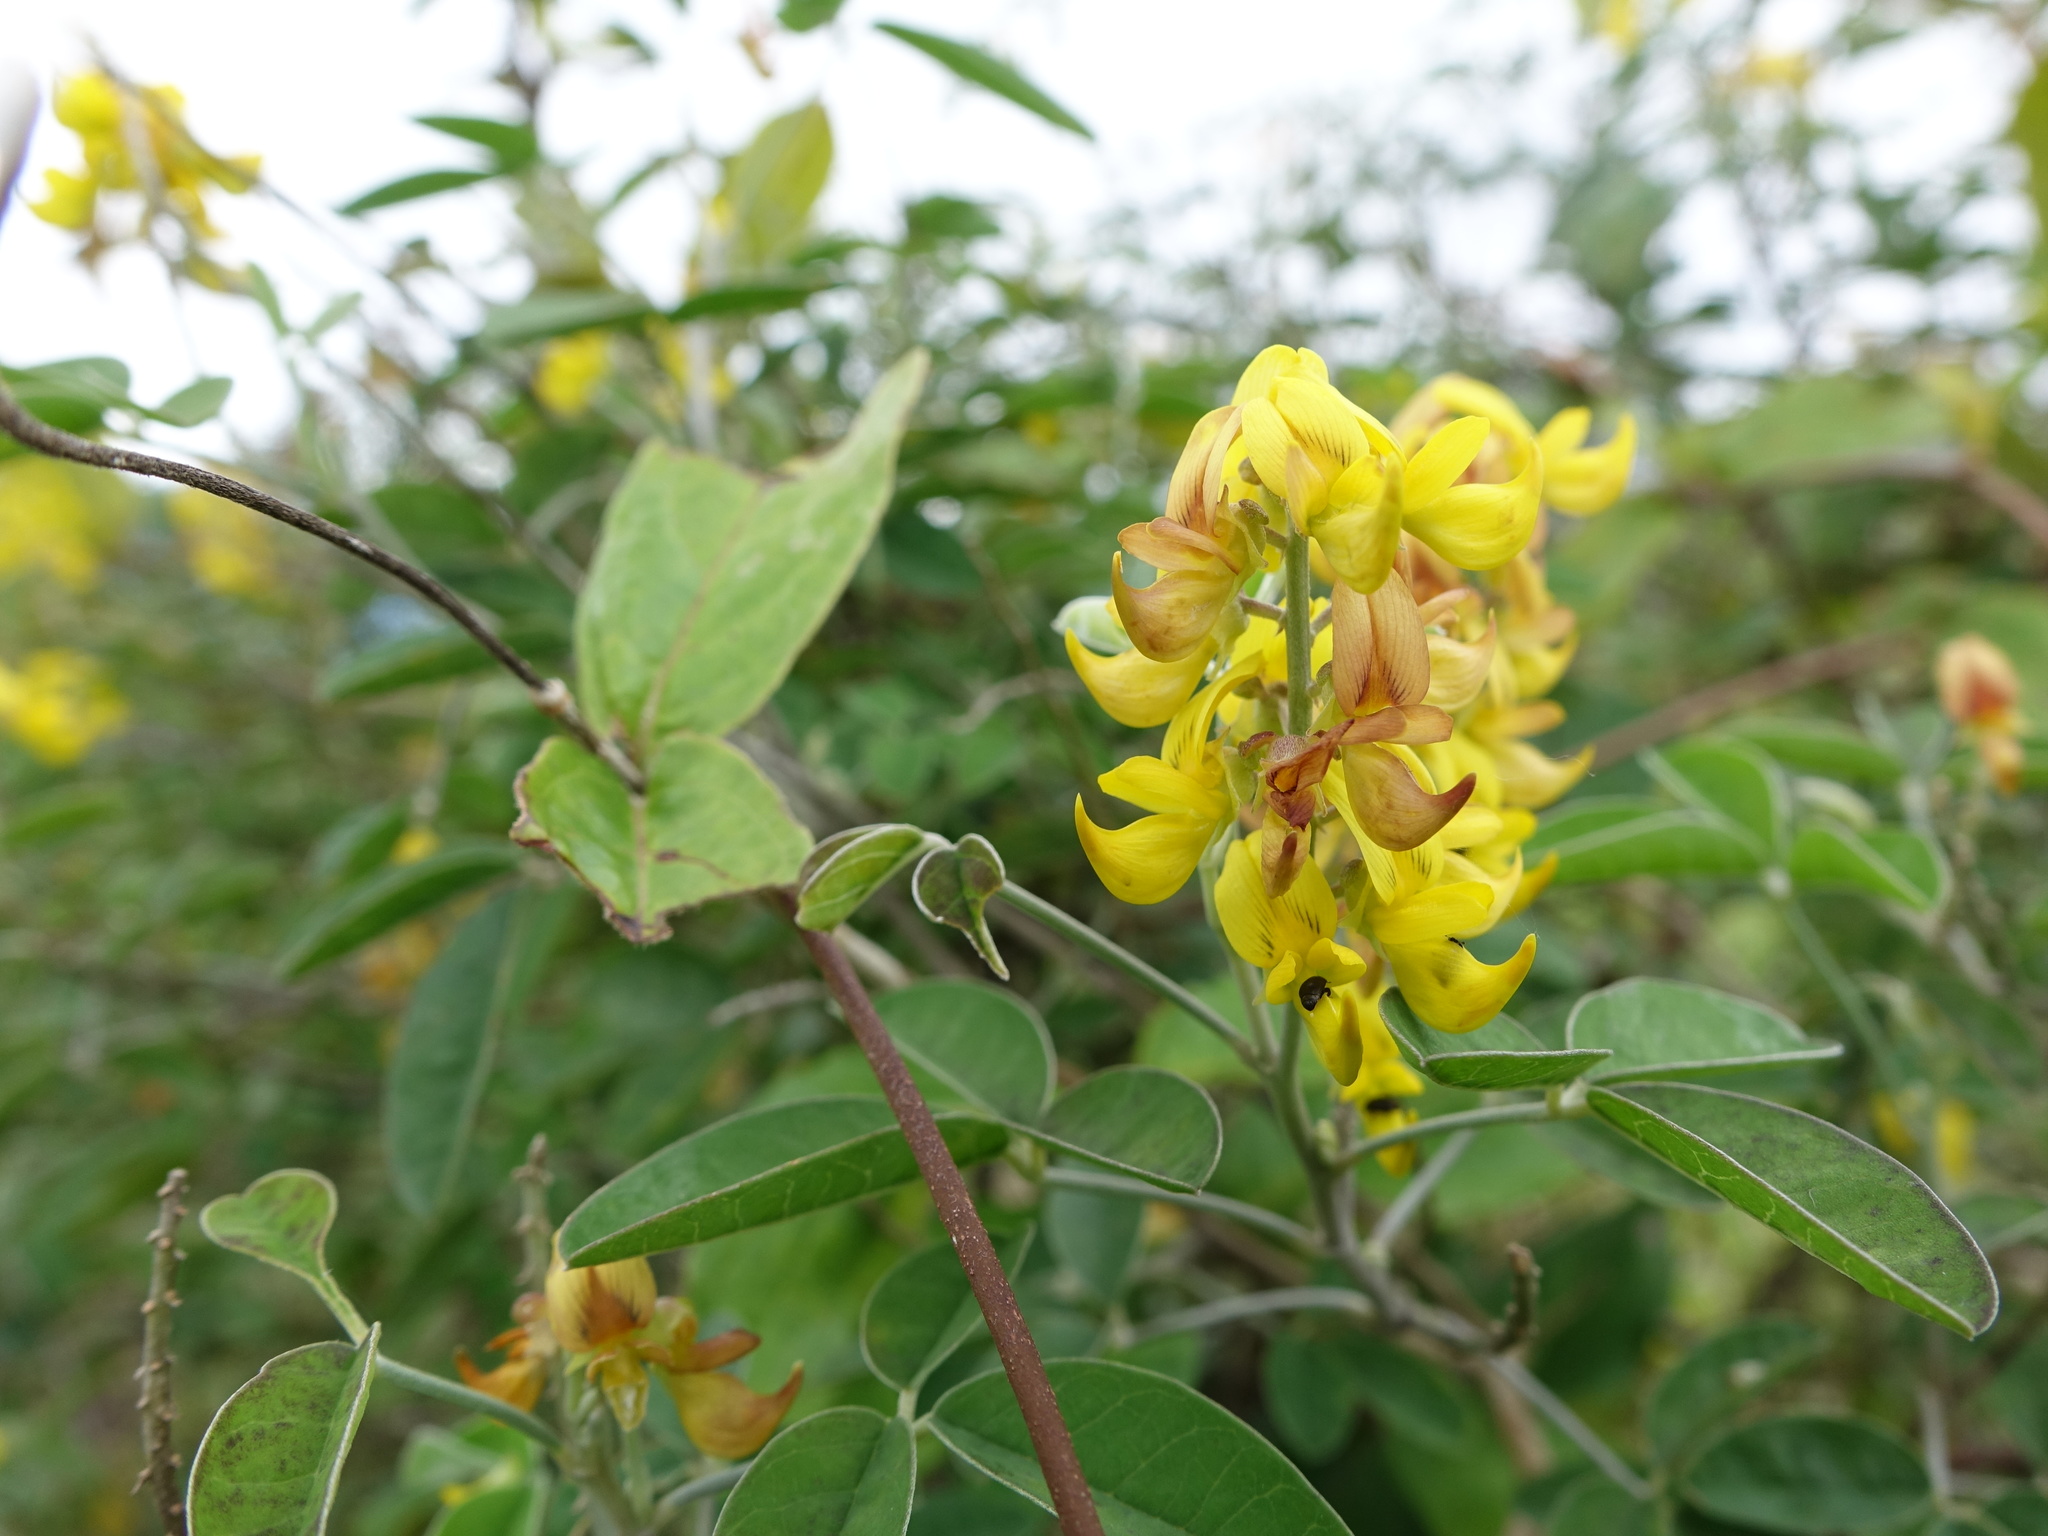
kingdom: Plantae
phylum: Tracheophyta
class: Magnoliopsida
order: Fabales
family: Fabaceae
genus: Crotalaria
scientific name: Crotalaria decaryana
